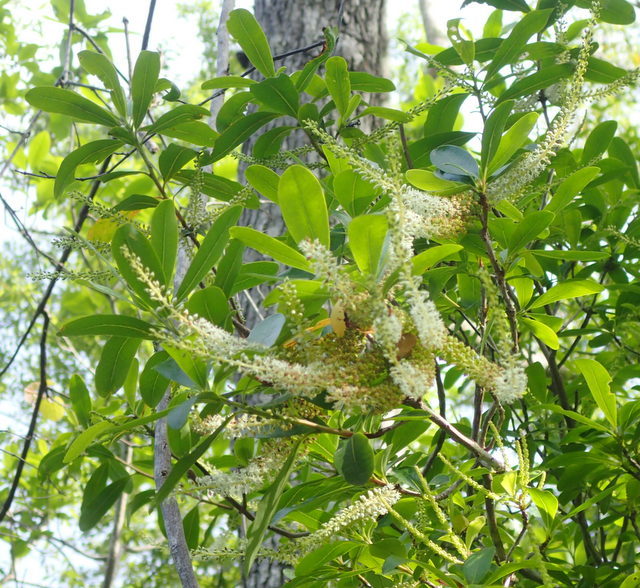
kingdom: Plantae
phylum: Tracheophyta
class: Magnoliopsida
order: Ericales
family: Cyrillaceae
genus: Cyrilla
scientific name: Cyrilla racemiflora
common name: Black titi
